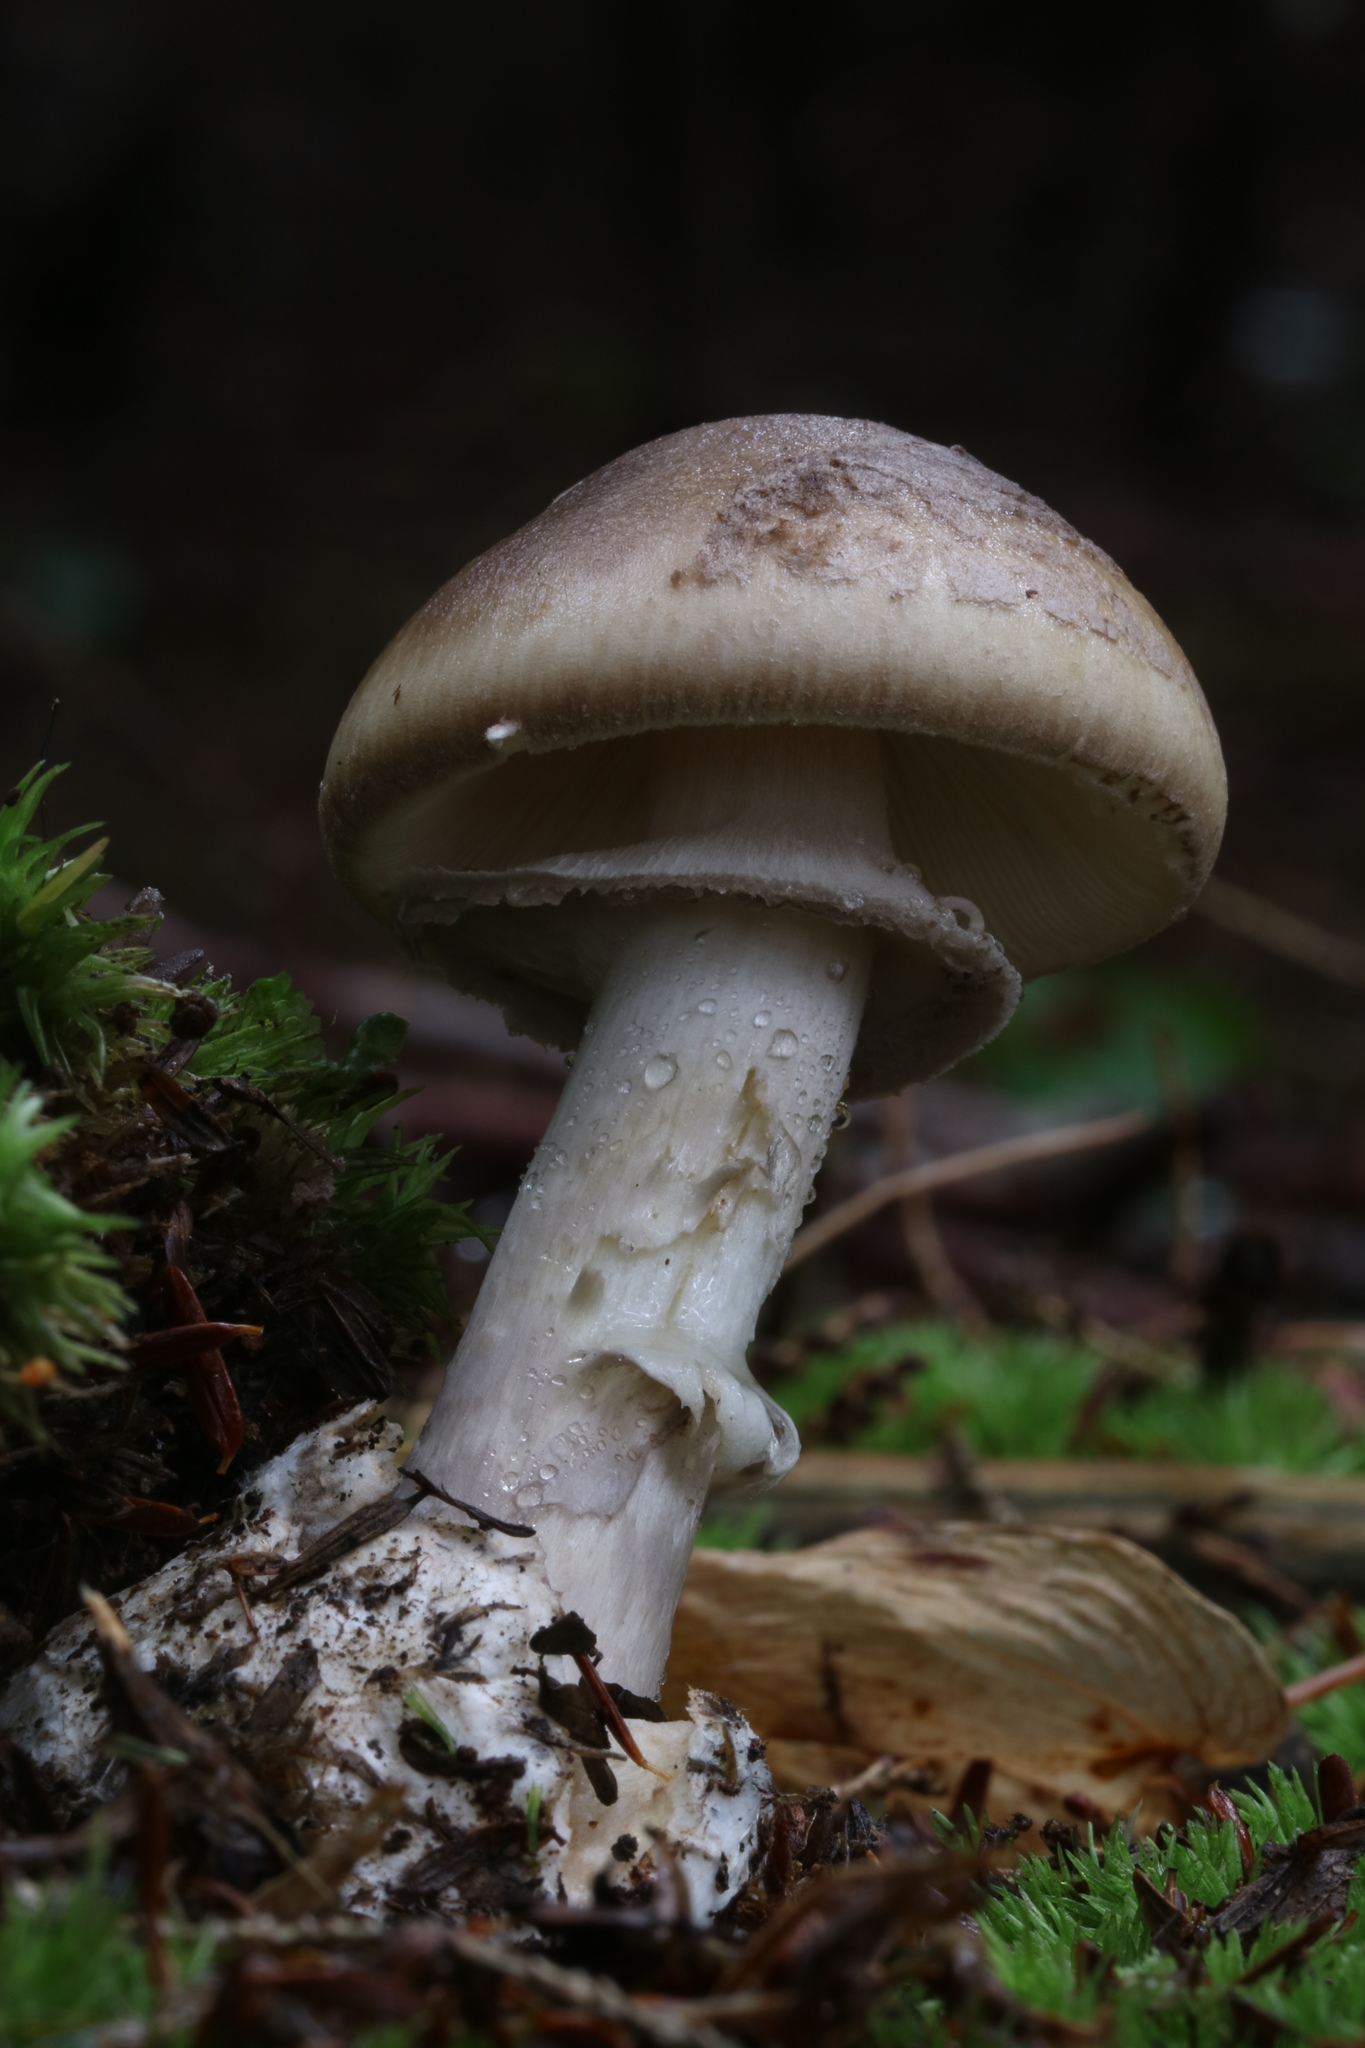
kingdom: Fungi
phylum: Basidiomycota
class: Agaricomycetes
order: Agaricales
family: Amanitaceae
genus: Amanita
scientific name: Amanita porphyria
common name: Grey veiled amanita
